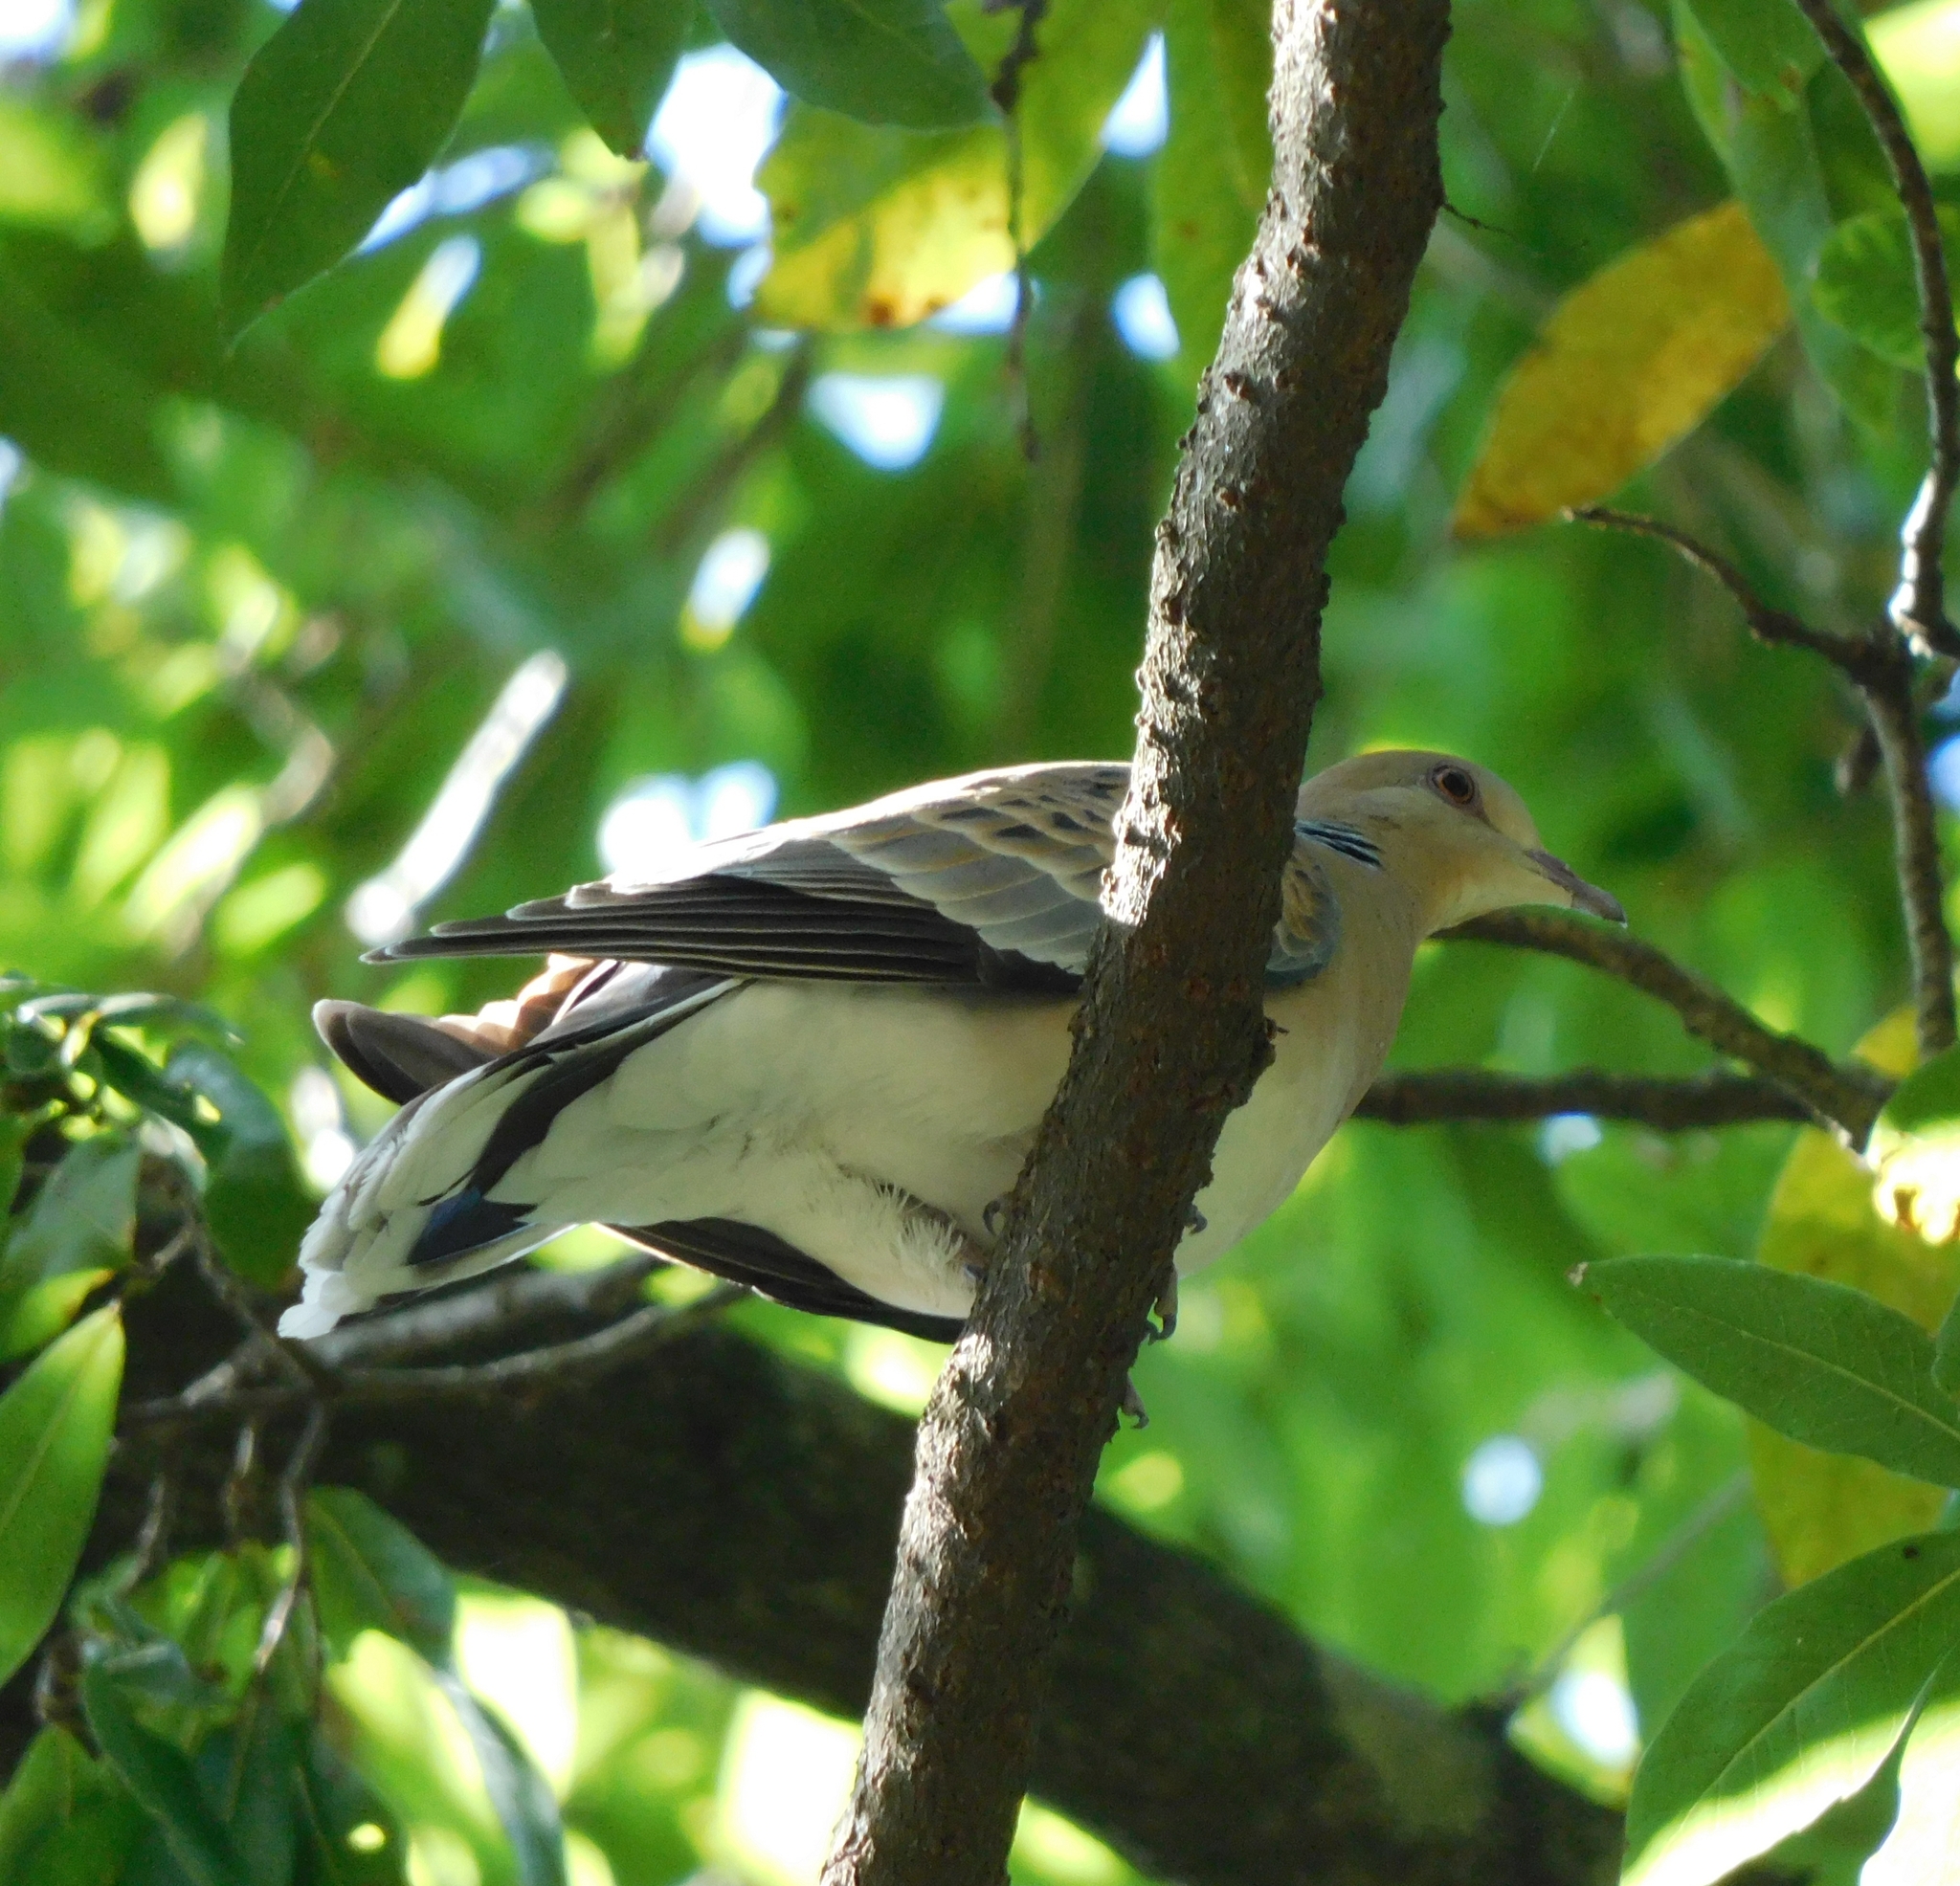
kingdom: Animalia
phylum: Chordata
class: Aves
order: Columbiformes
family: Columbidae
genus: Streptopelia
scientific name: Streptopelia orientalis
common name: Oriental turtle dove
